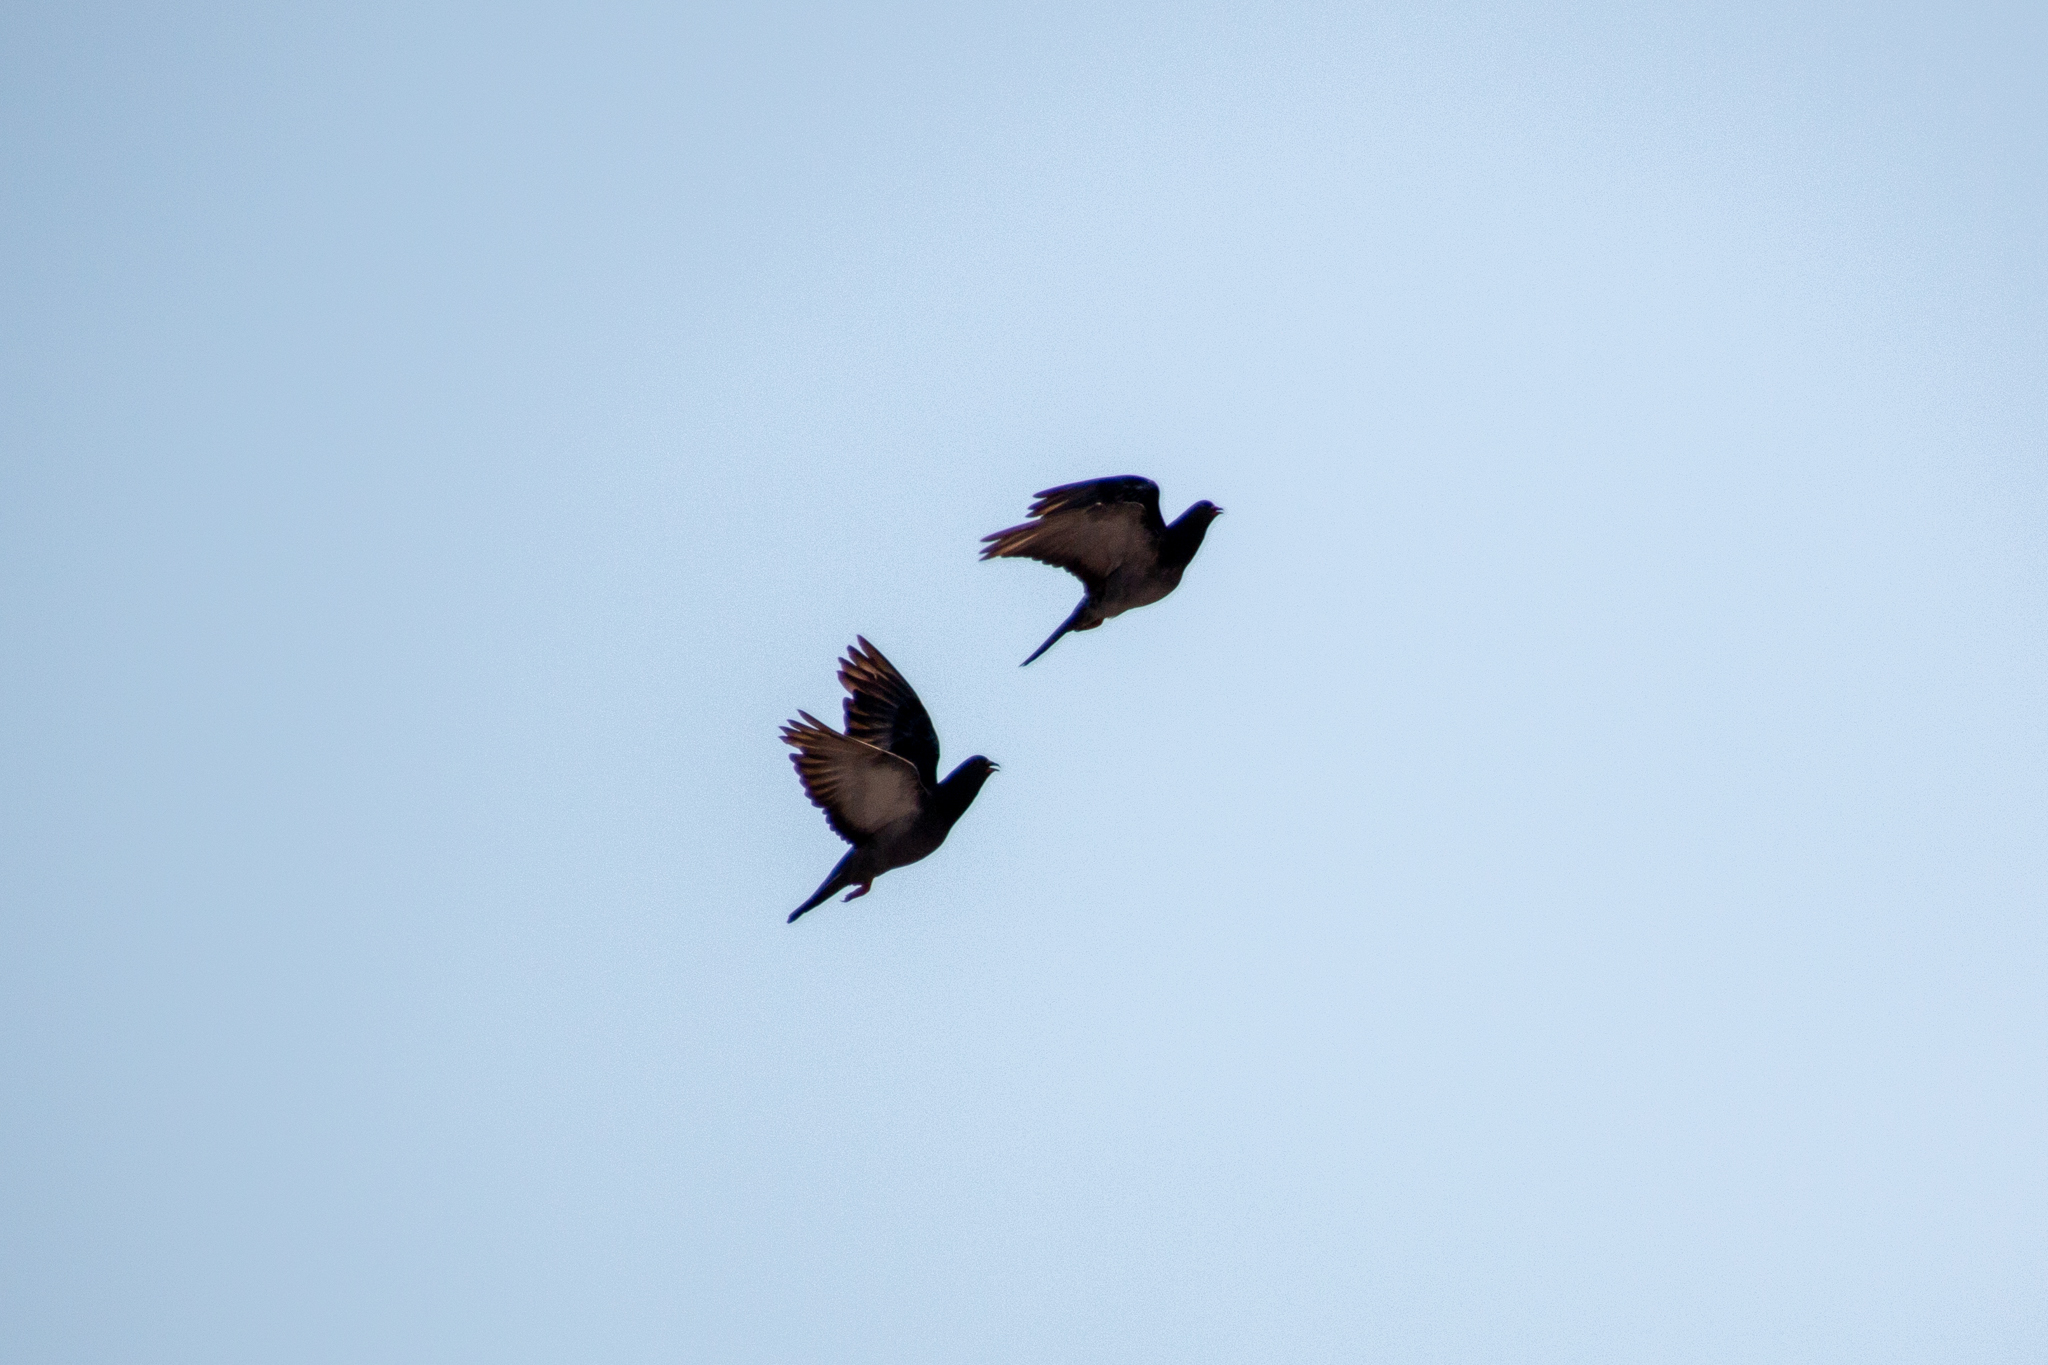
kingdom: Animalia
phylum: Chordata
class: Aves
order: Columbiformes
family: Columbidae
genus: Columba
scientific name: Columba livia
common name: Rock pigeon
